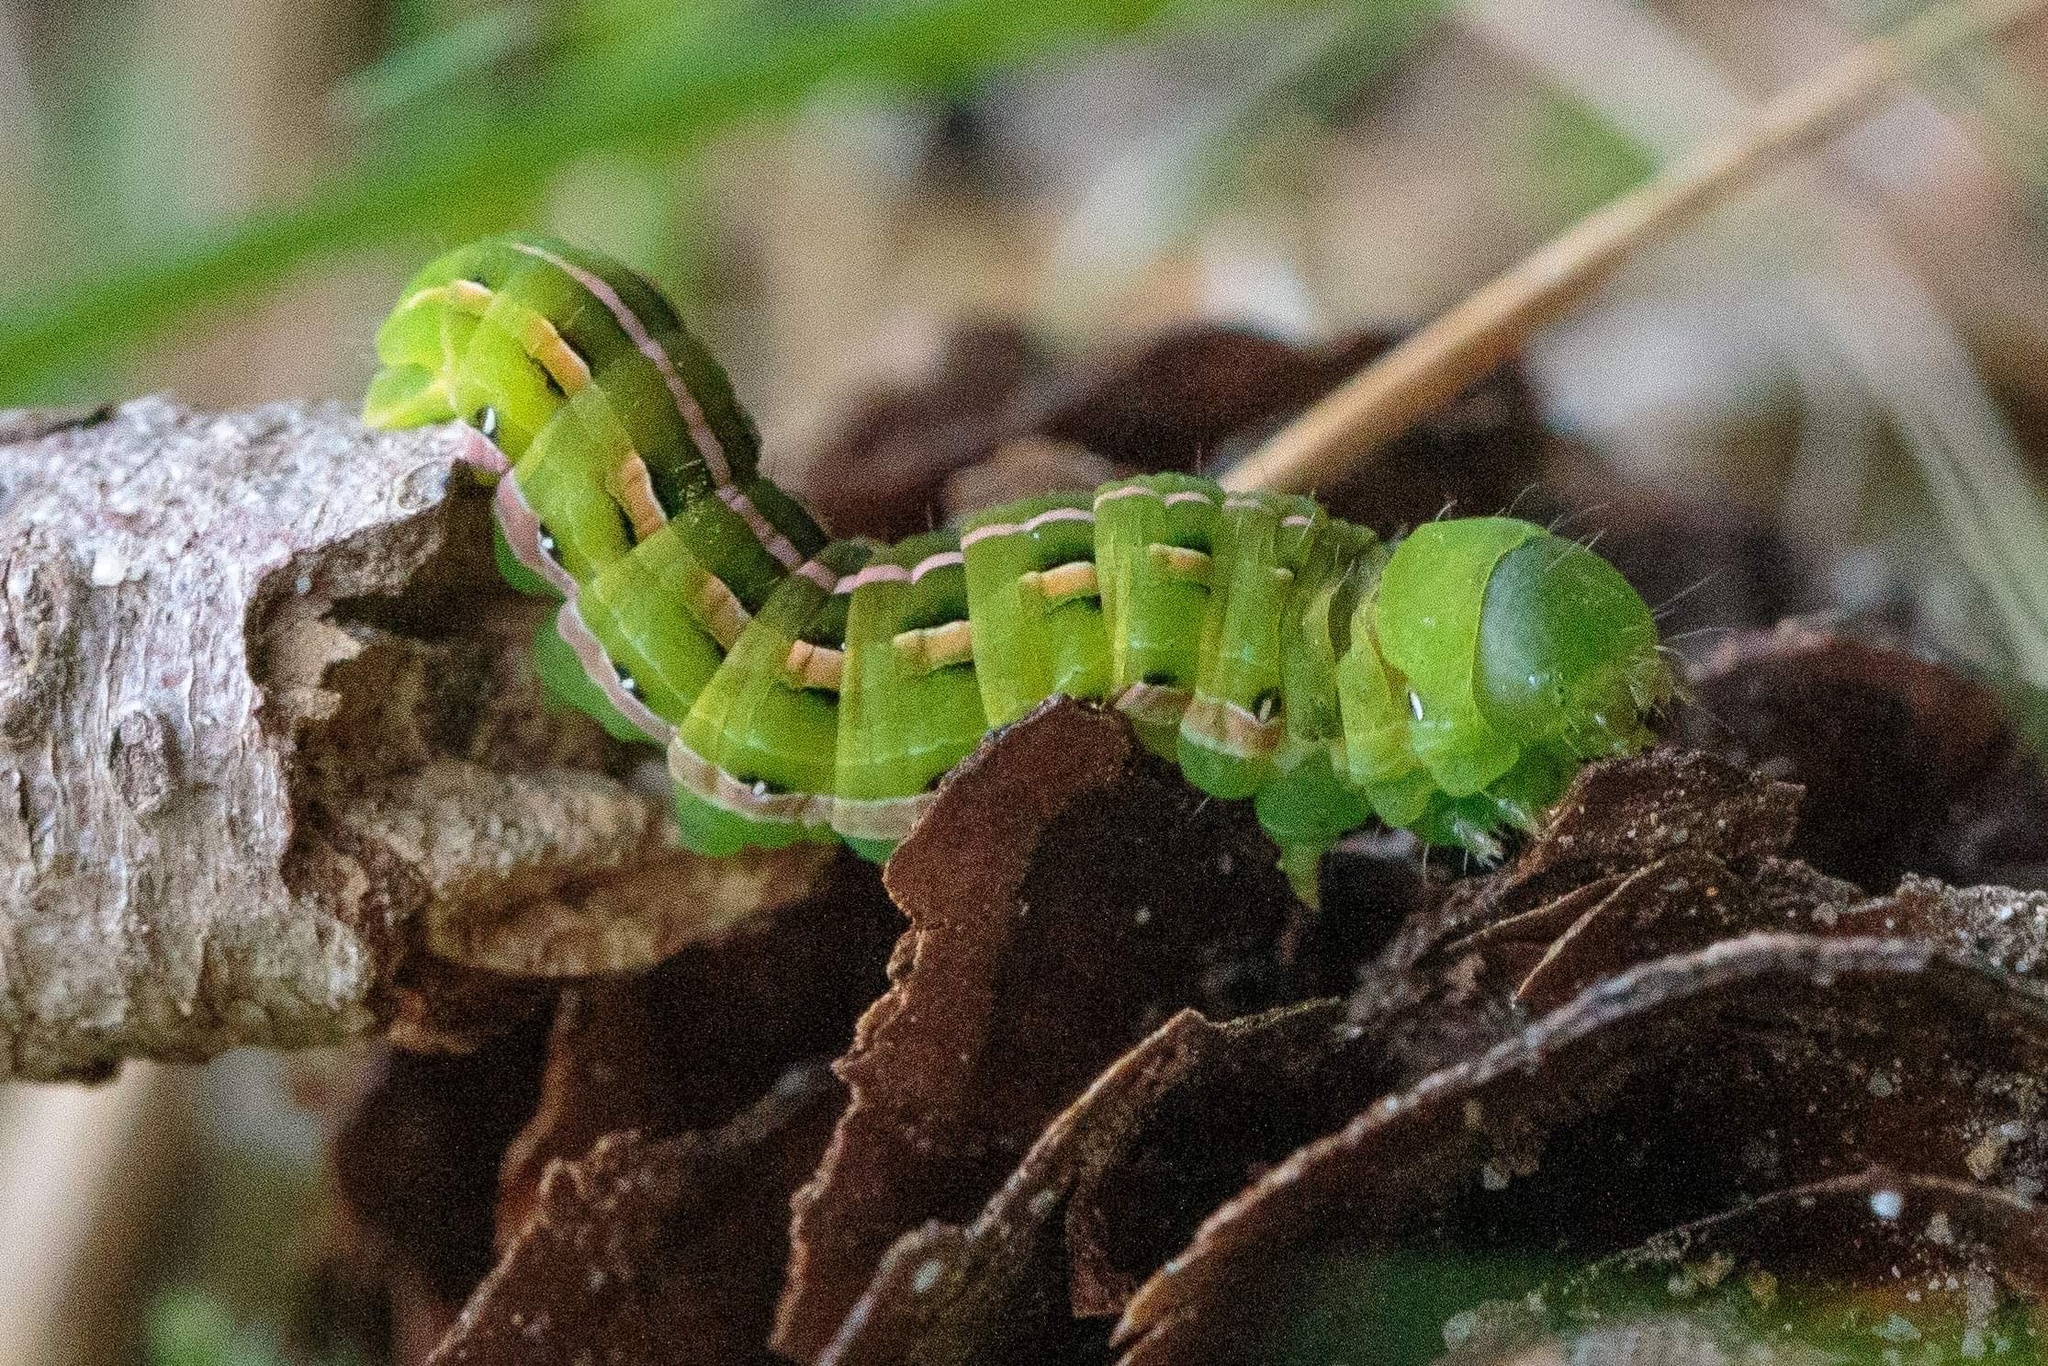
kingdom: Animalia
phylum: Arthropoda
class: Insecta
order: Lepidoptera
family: Noctuidae
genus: Dargida
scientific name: Dargida procinctus
